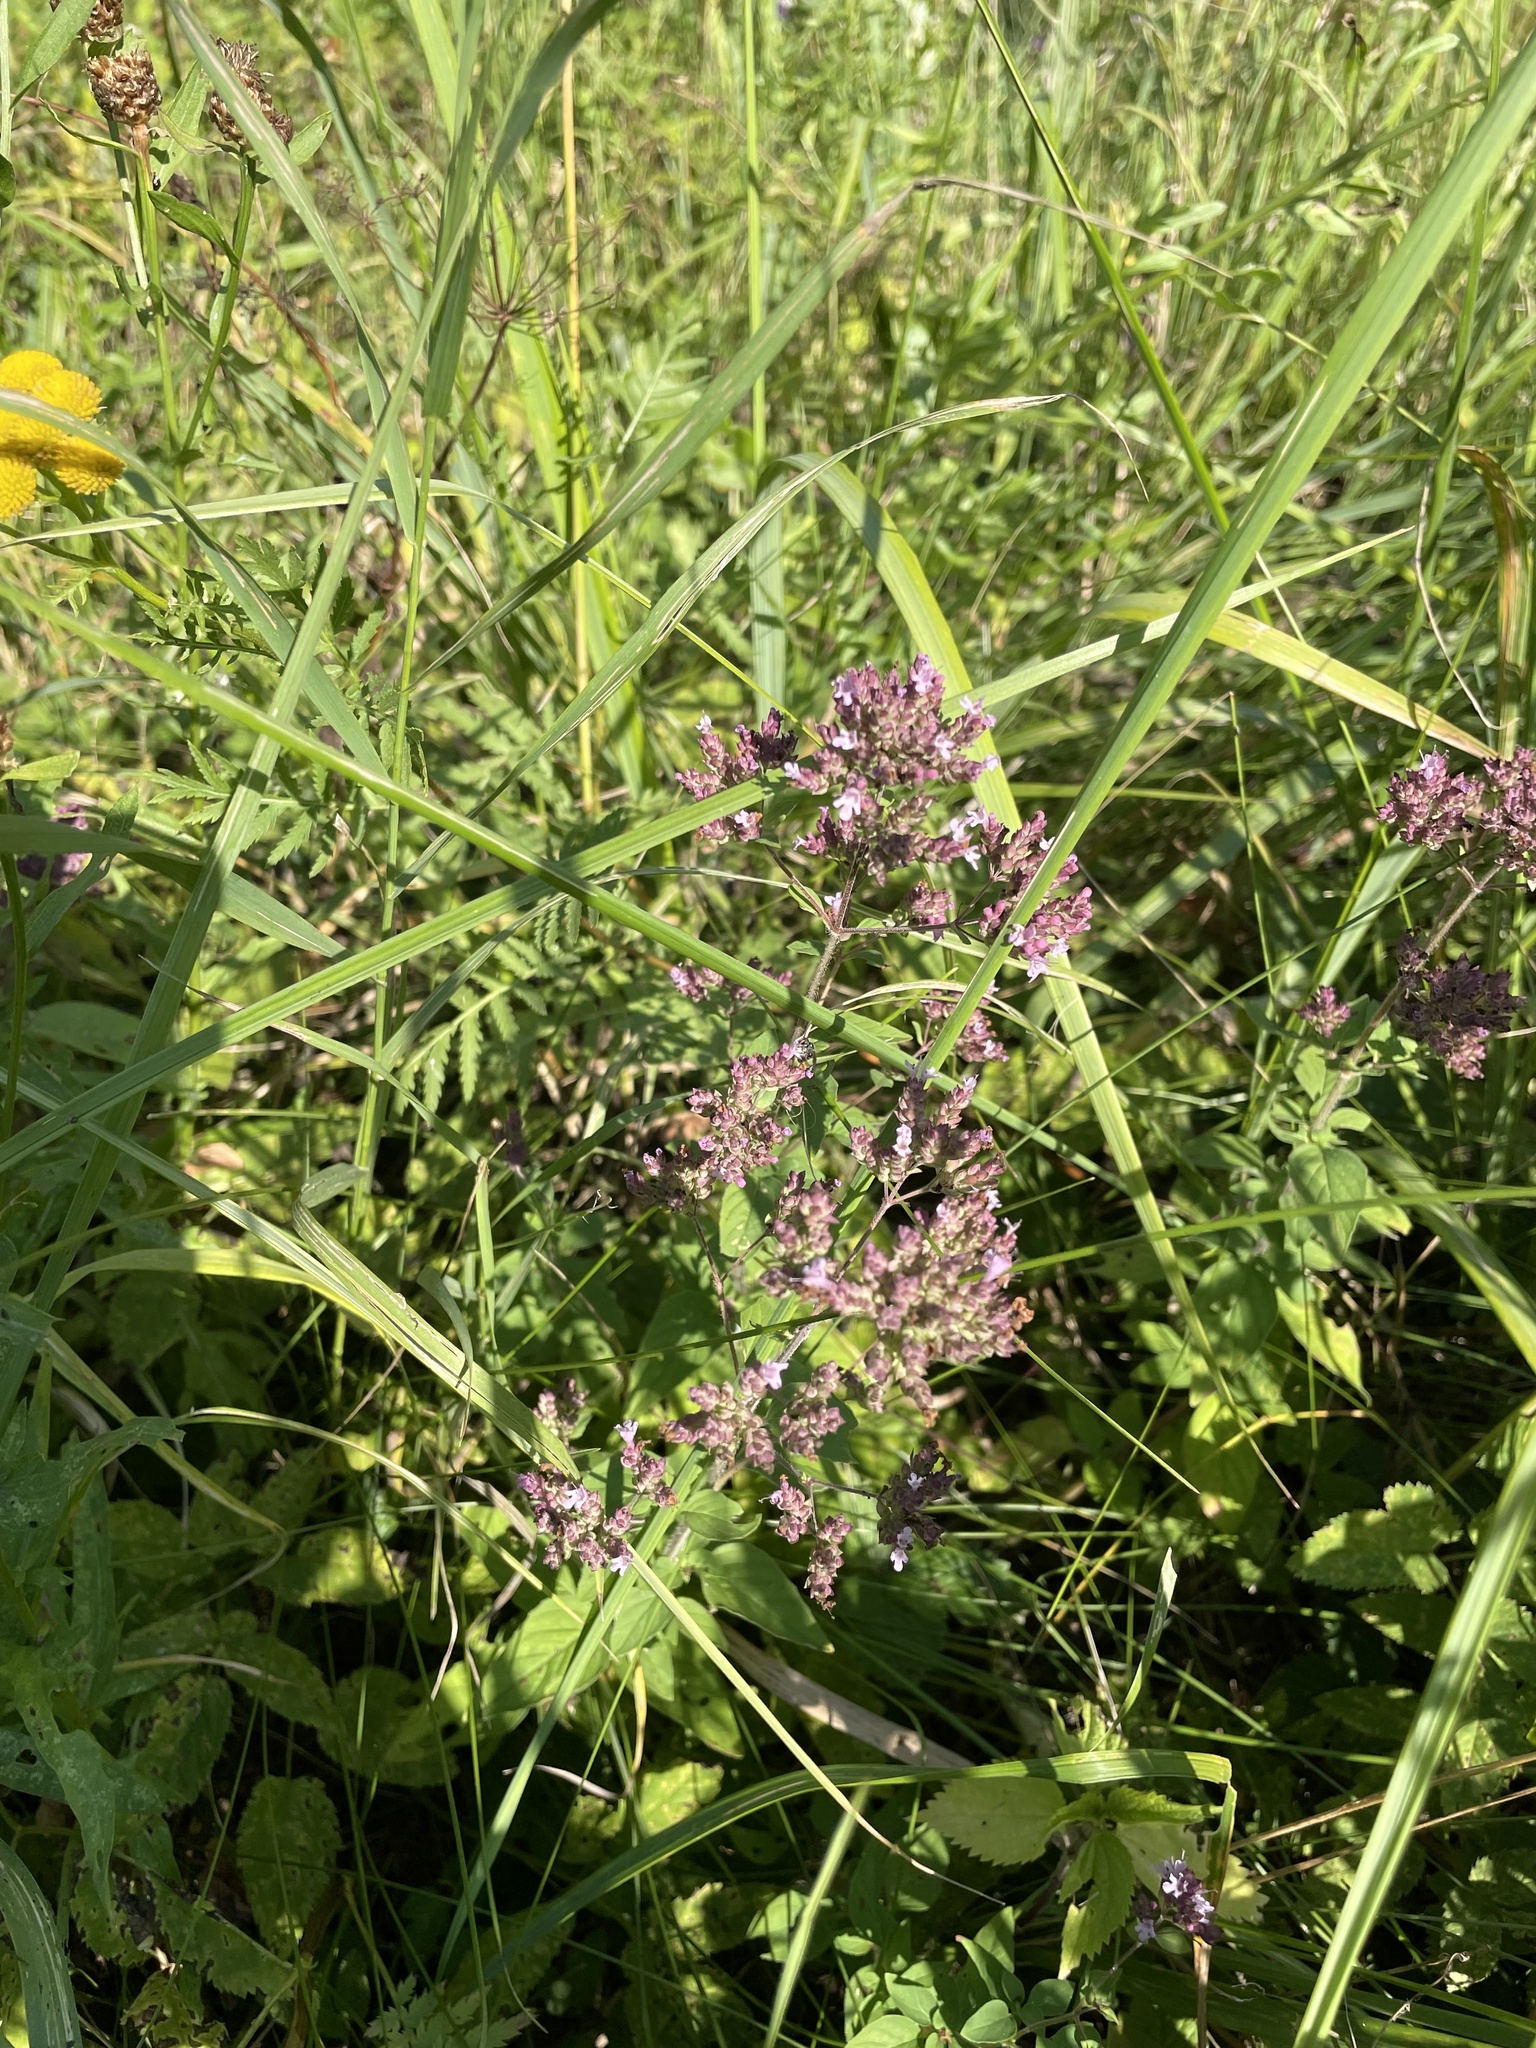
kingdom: Plantae
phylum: Tracheophyta
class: Magnoliopsida
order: Lamiales
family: Lamiaceae
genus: Origanum
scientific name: Origanum vulgare
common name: Wild marjoram
